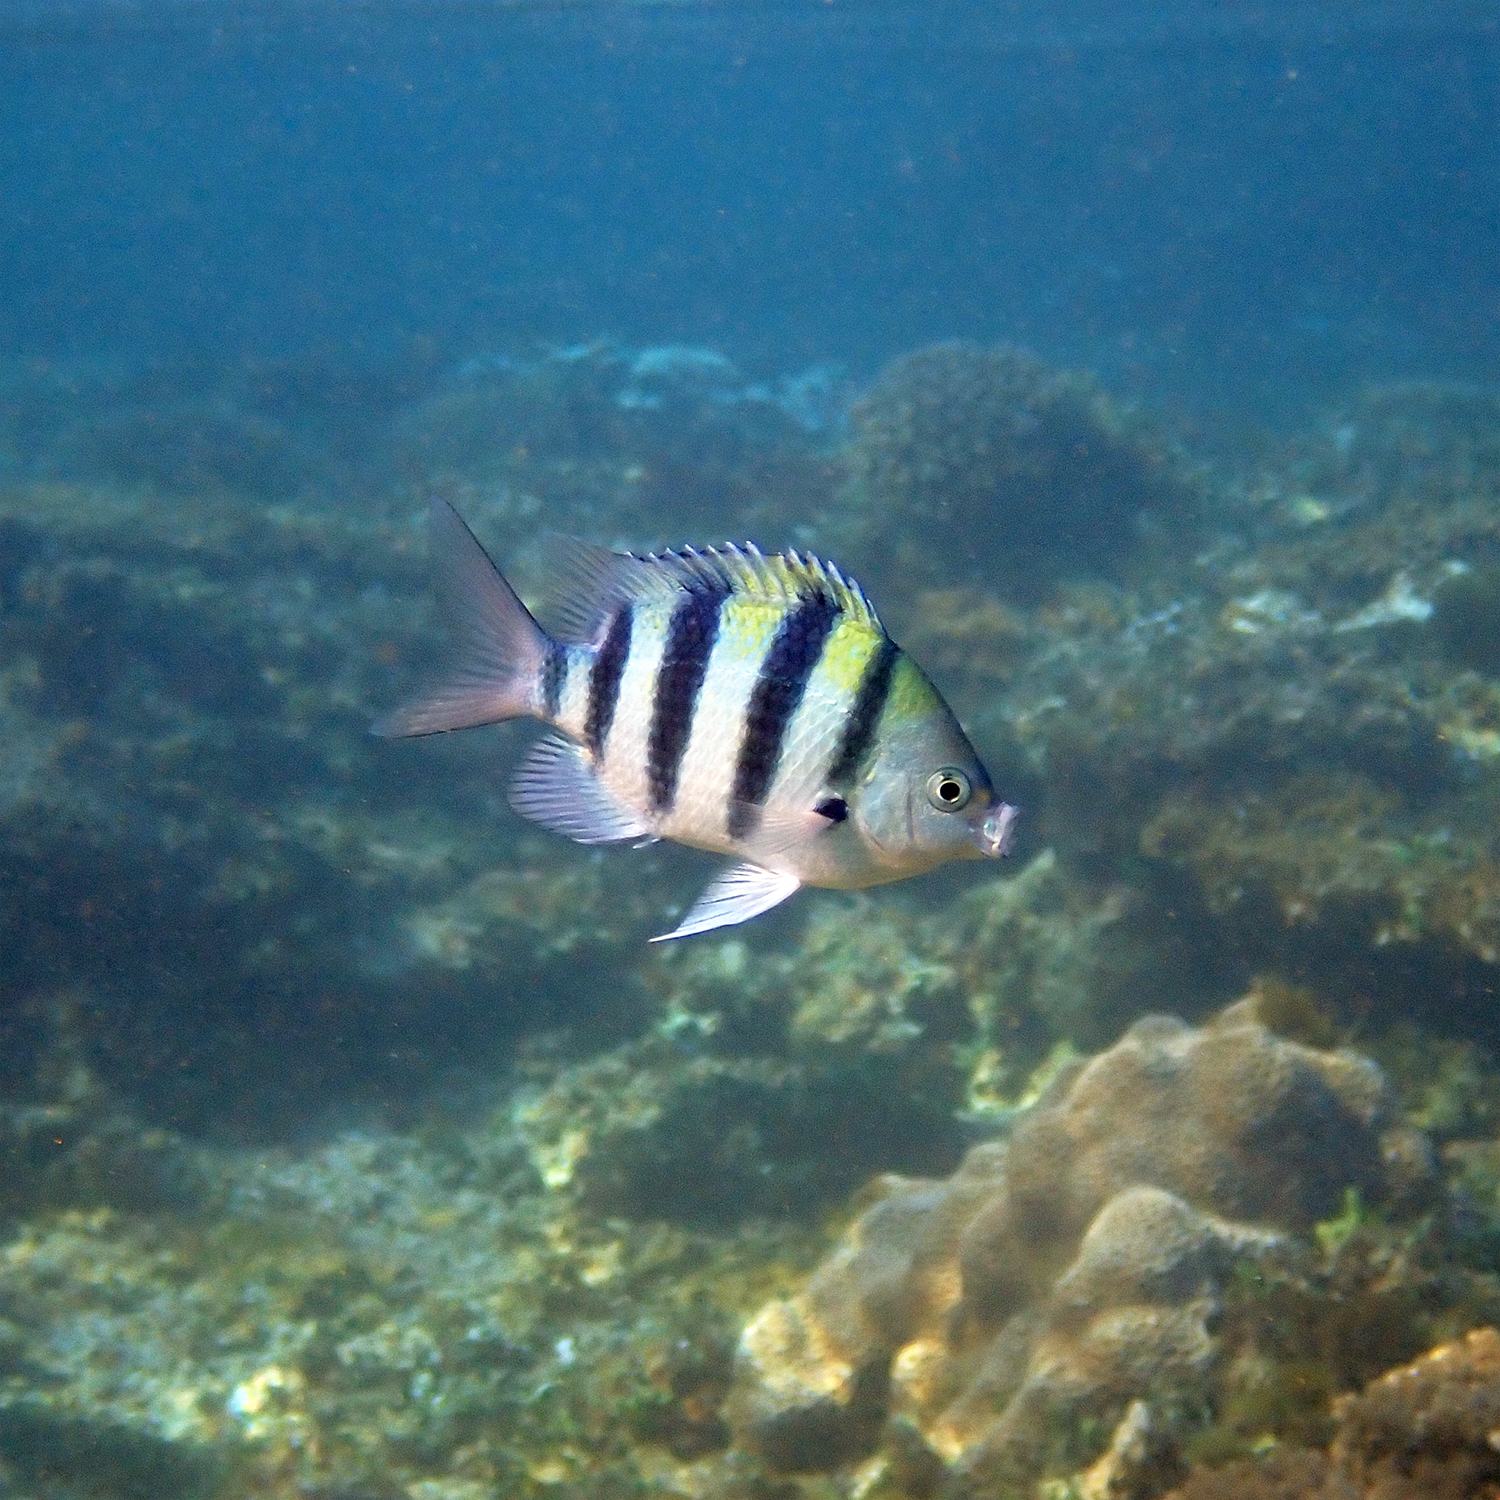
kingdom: Animalia
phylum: Chordata
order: Perciformes
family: Pomacentridae
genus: Abudefduf
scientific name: Abudefduf vaigiensis
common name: Indo-pacific sergeant
